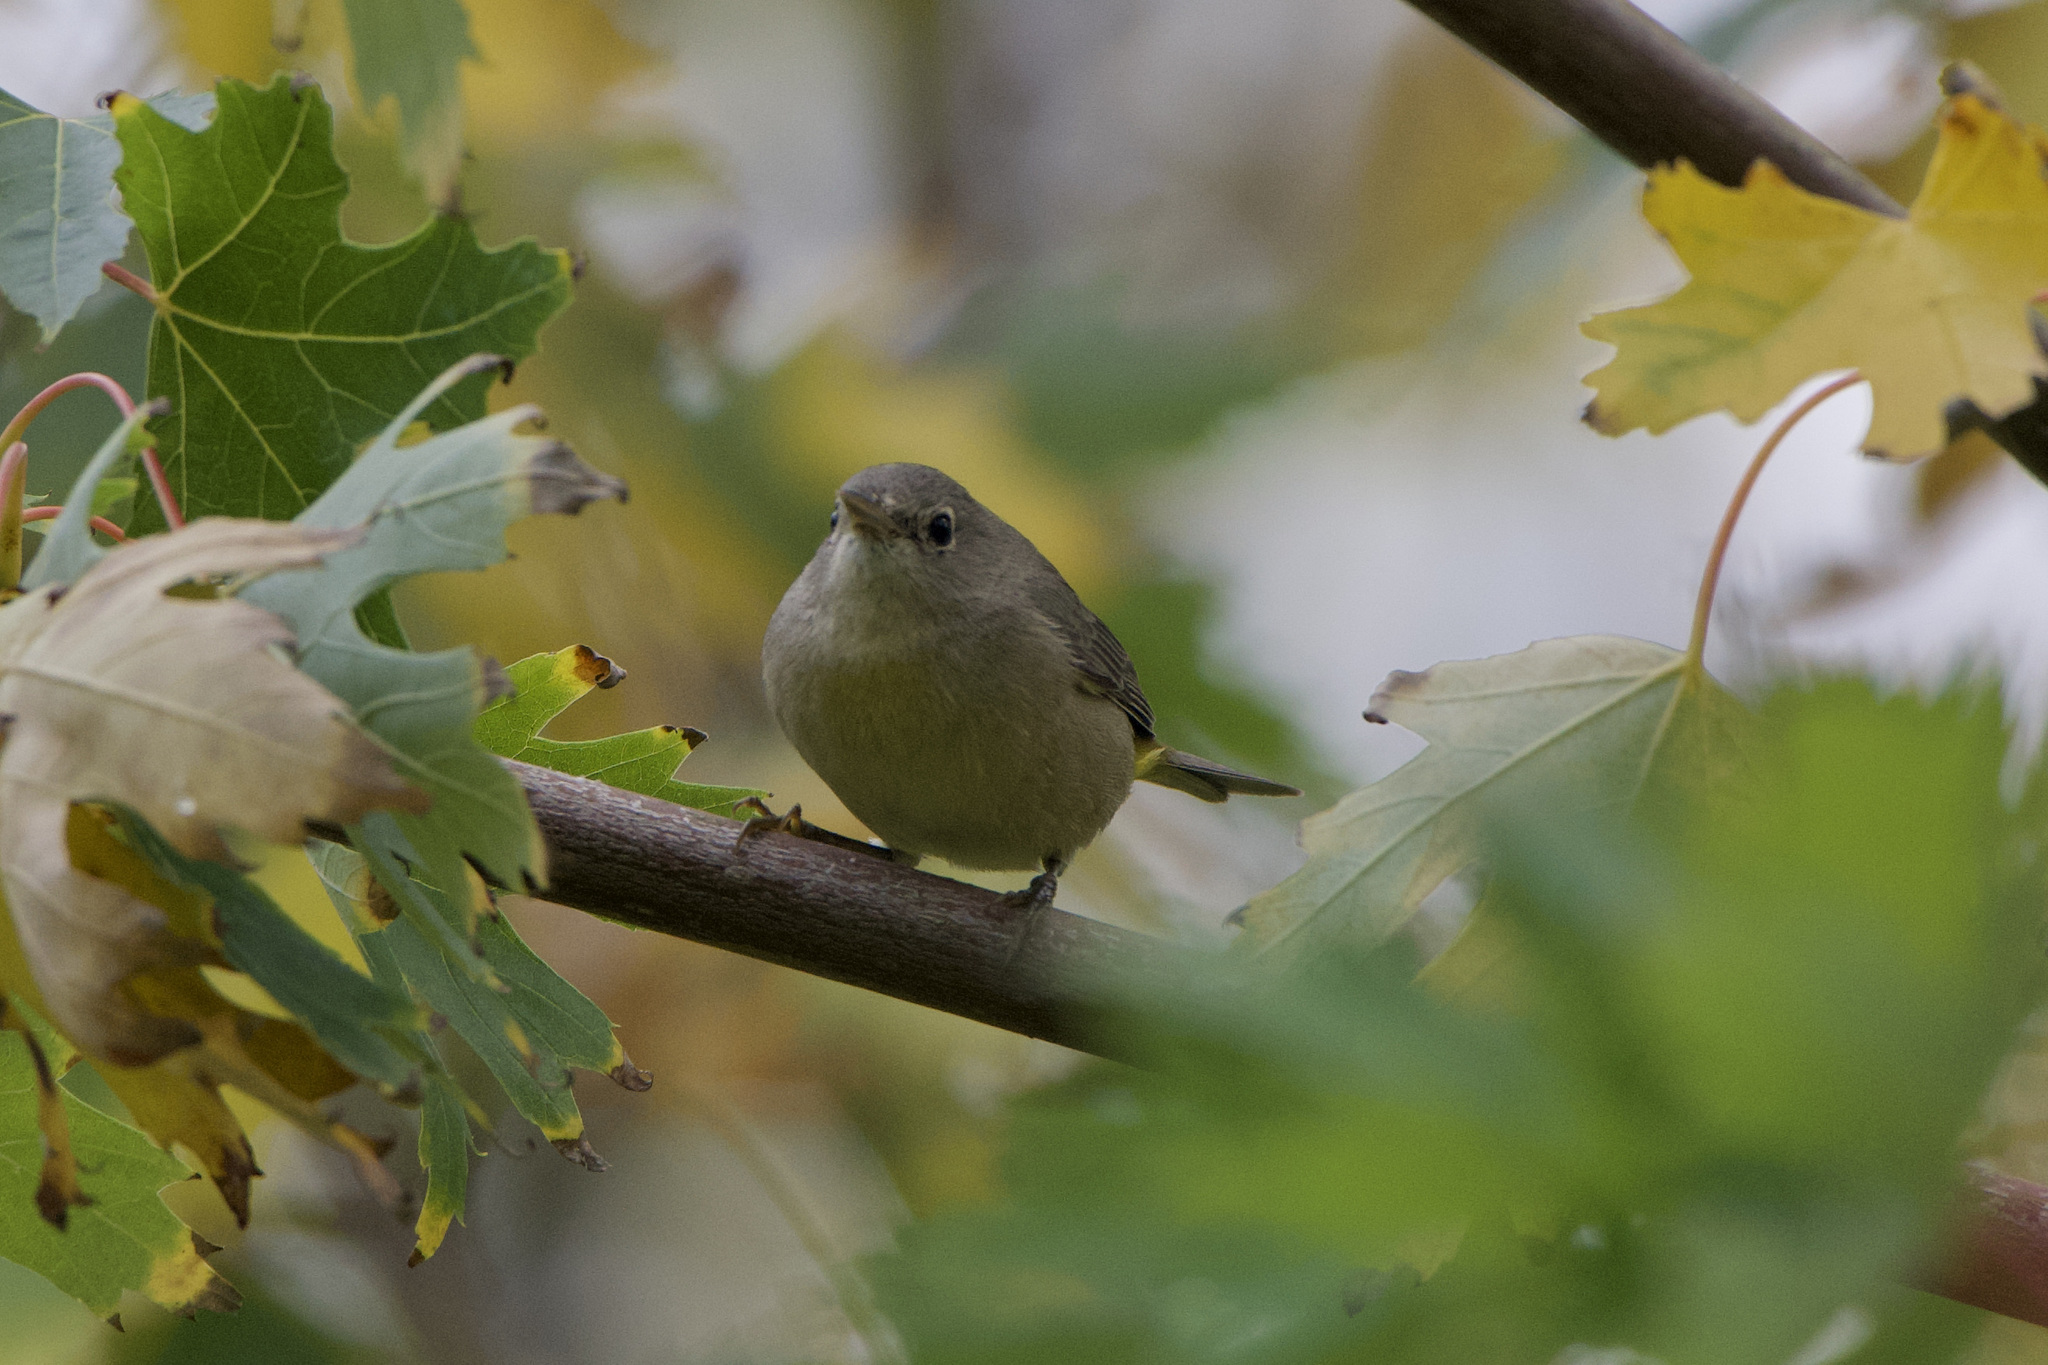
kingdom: Animalia
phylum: Chordata
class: Aves
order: Passeriformes
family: Parulidae
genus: Leiothlypis
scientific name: Leiothlypis virginiae
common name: Virginia's warbler
